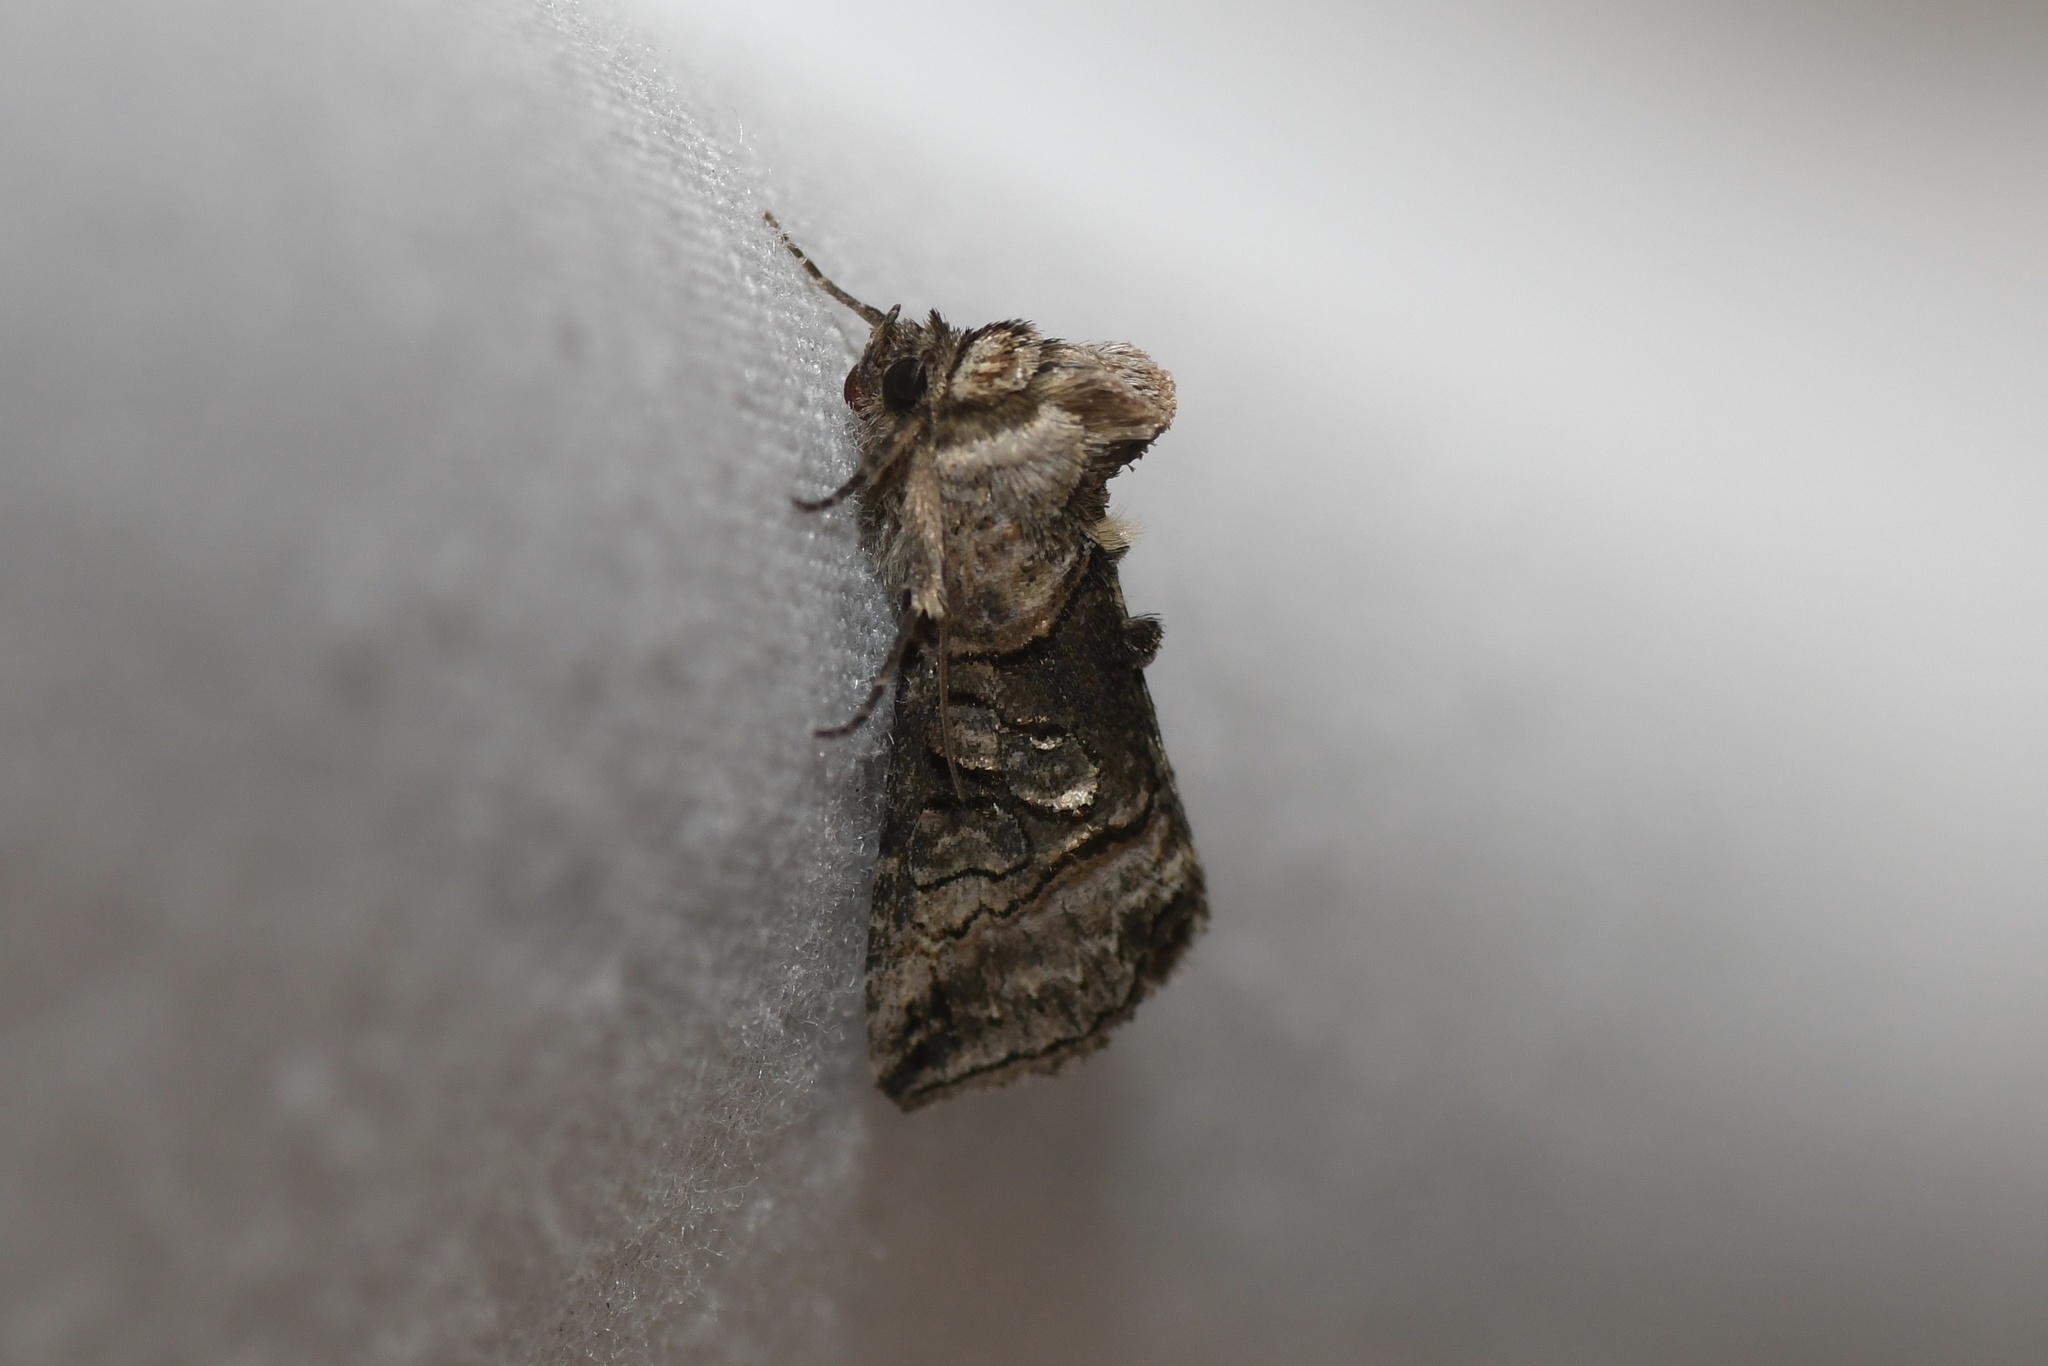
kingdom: Animalia
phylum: Arthropoda
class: Insecta
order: Lepidoptera
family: Noctuidae
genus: Abrostola
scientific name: Abrostola urentis
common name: Spectacled nettle moth
